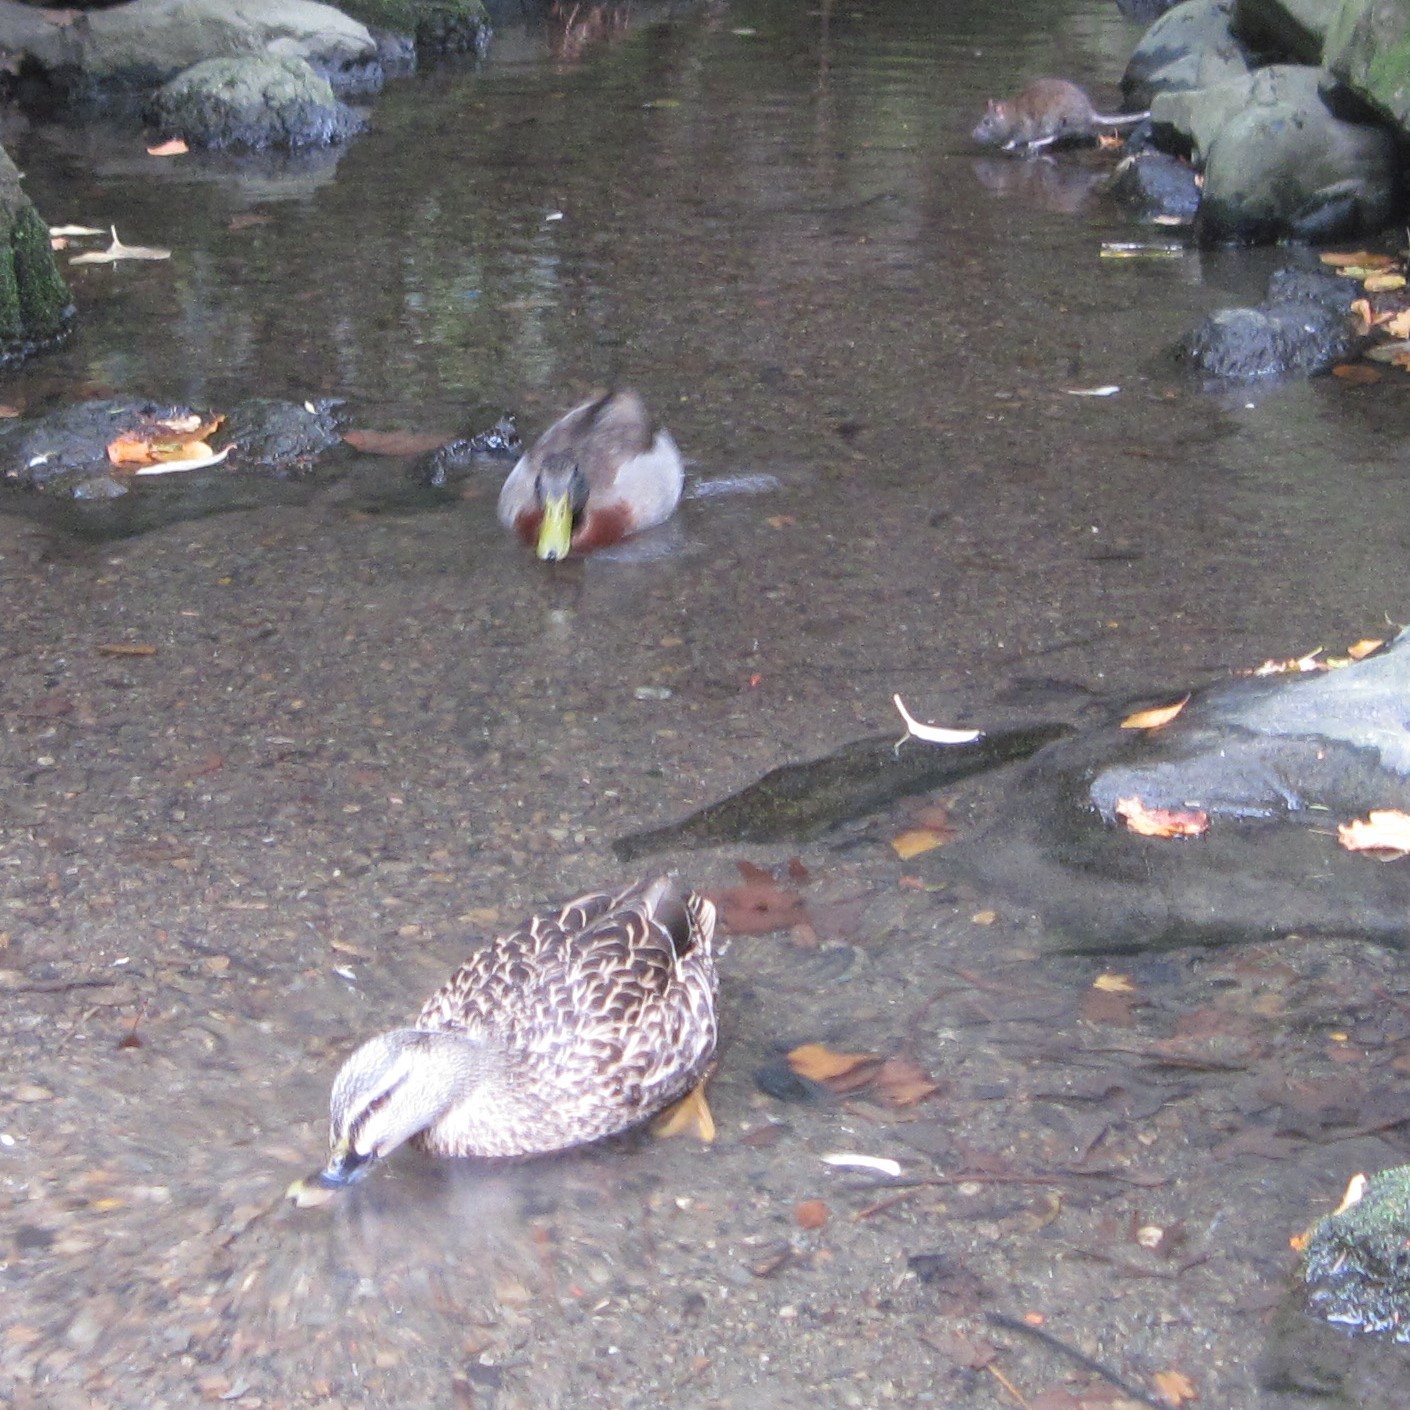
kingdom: Animalia
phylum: Chordata
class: Mammalia
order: Rodentia
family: Muridae
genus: Rattus
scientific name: Rattus norvegicus
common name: Brown rat
